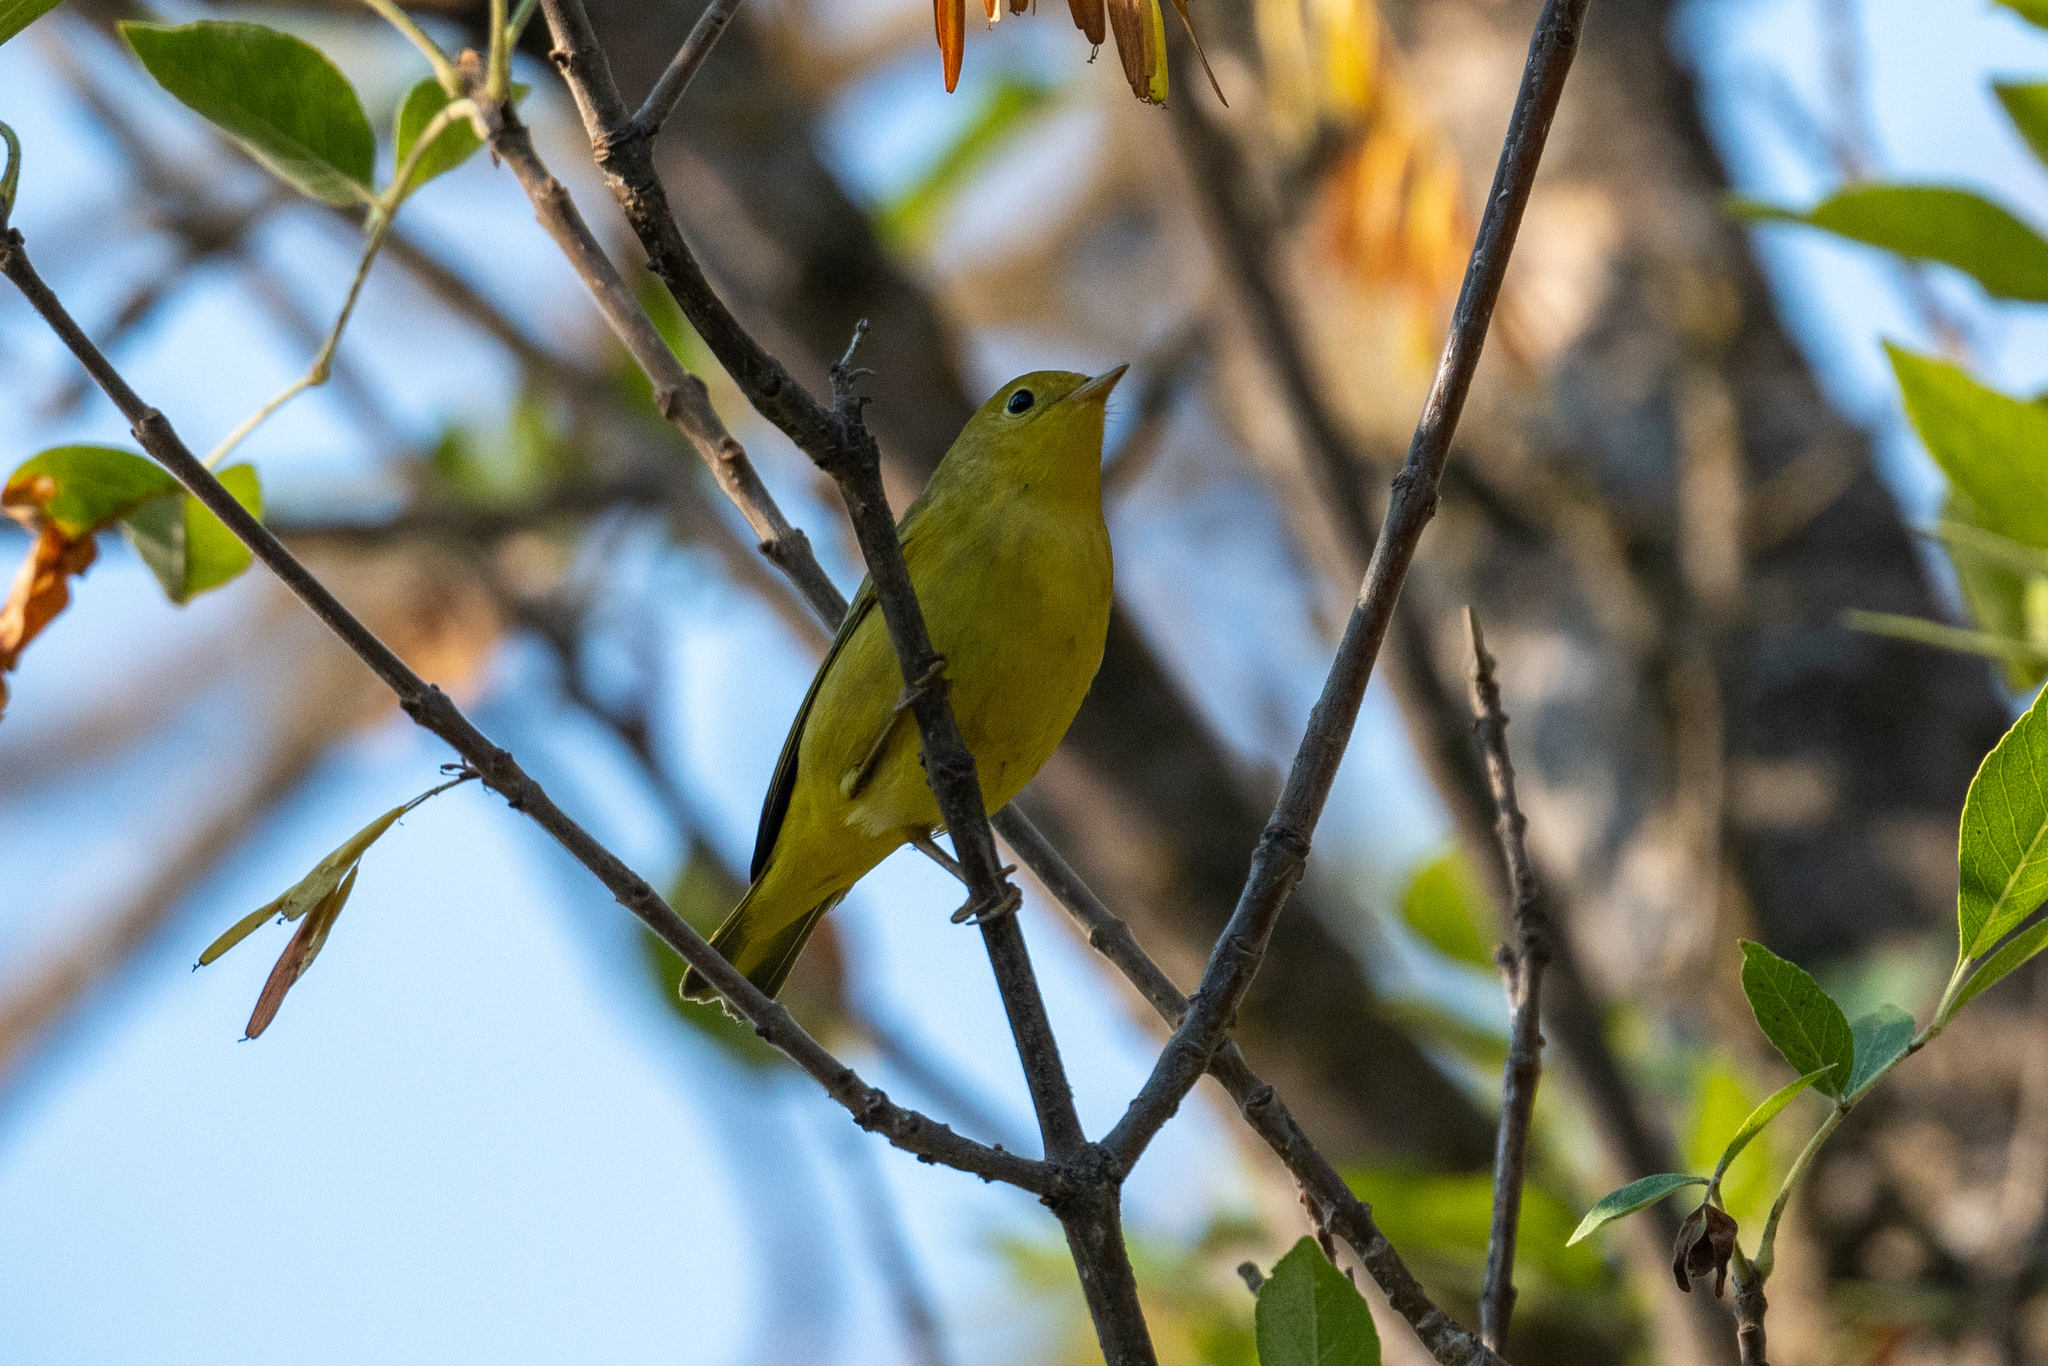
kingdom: Animalia
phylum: Chordata
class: Aves
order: Passeriformes
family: Parulidae
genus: Setophaga
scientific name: Setophaga petechia
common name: Yellow warbler
